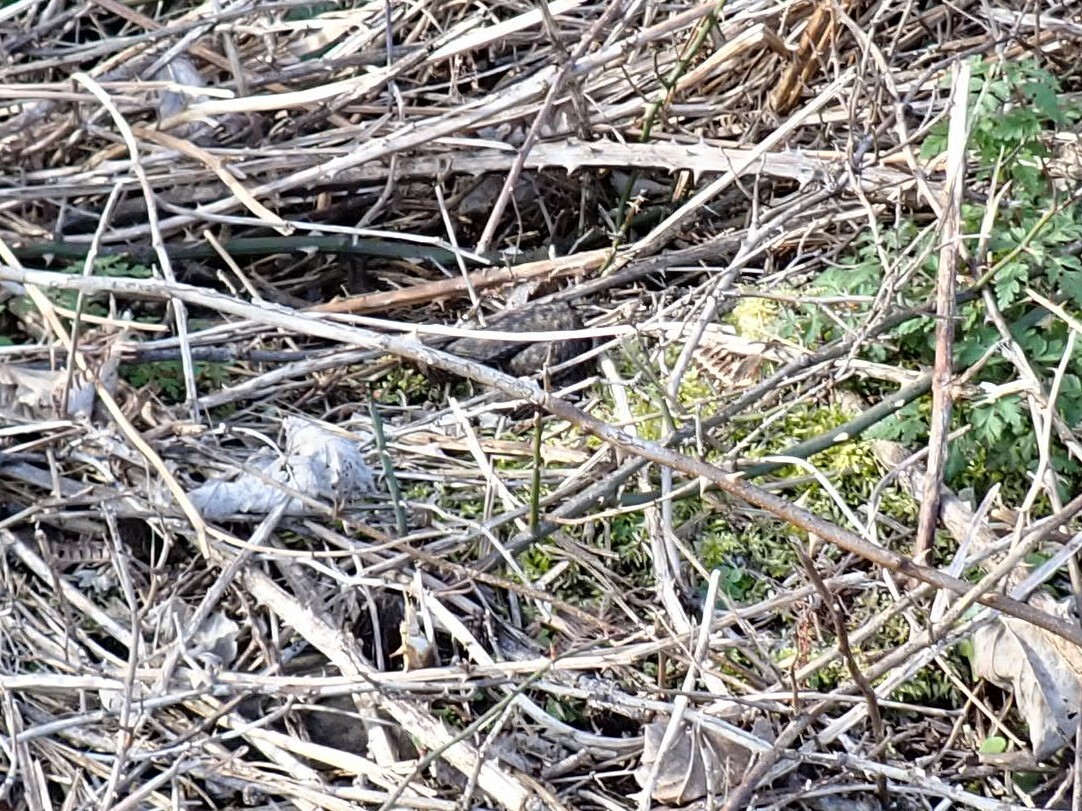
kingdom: Animalia
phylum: Chordata
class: Squamata
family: Viperidae
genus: Vipera
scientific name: Vipera berus
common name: Adder
